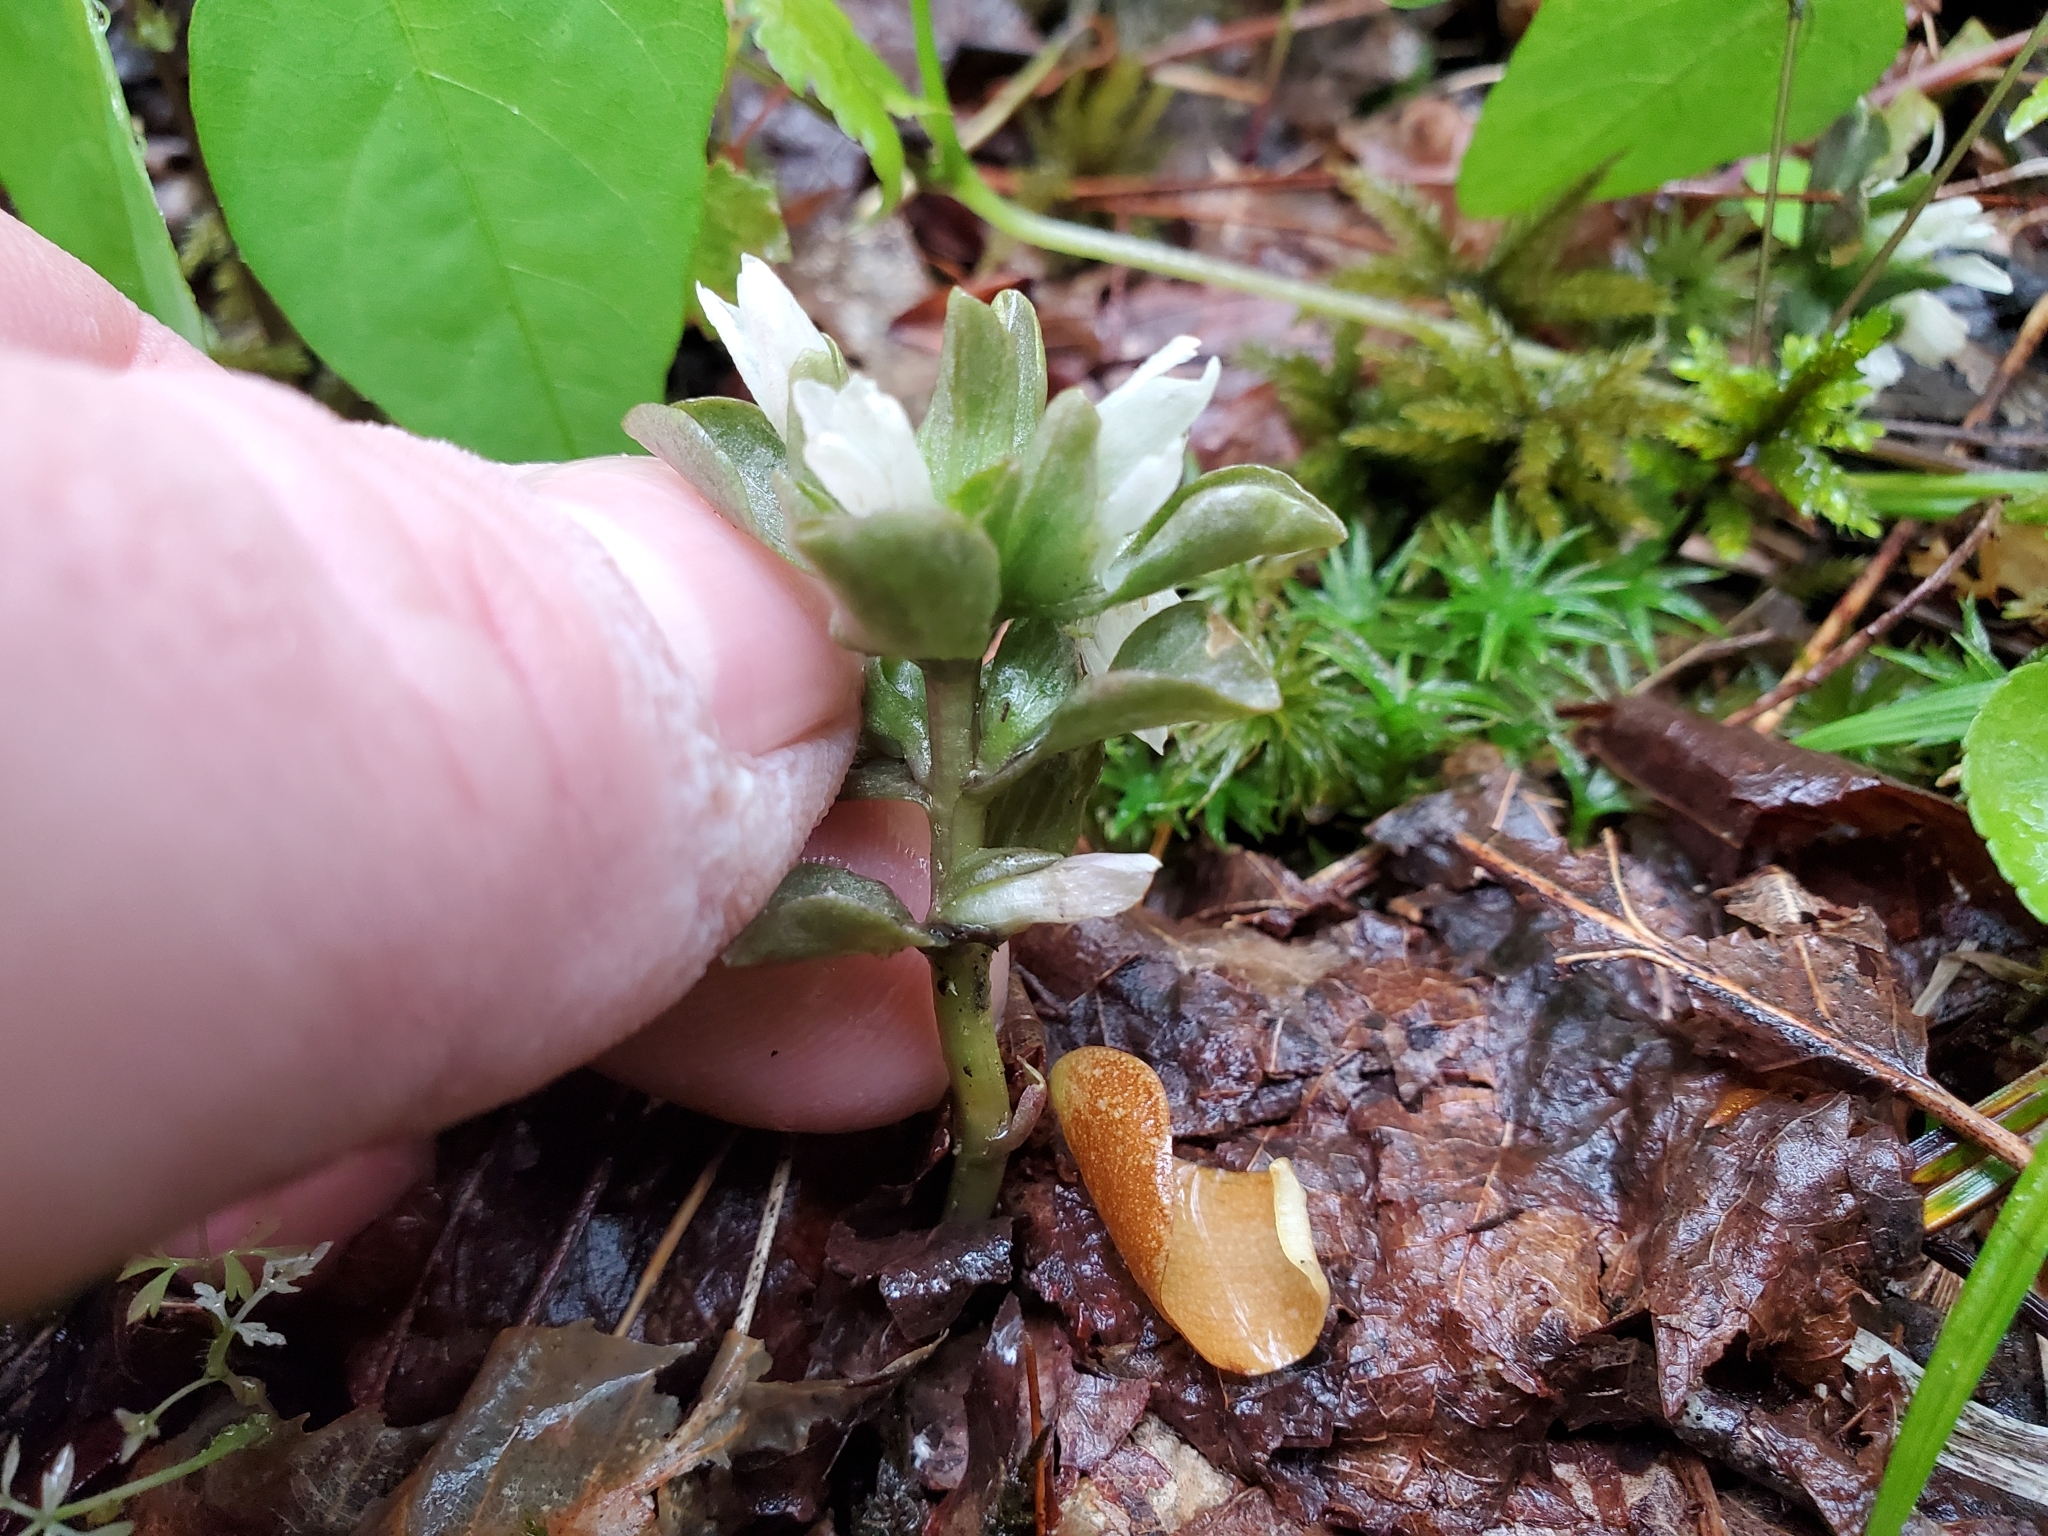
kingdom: Plantae
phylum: Tracheophyta
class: Magnoliopsida
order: Gentianales
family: Gentianaceae
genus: Obolaria
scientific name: Obolaria virginica
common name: Pennywort
